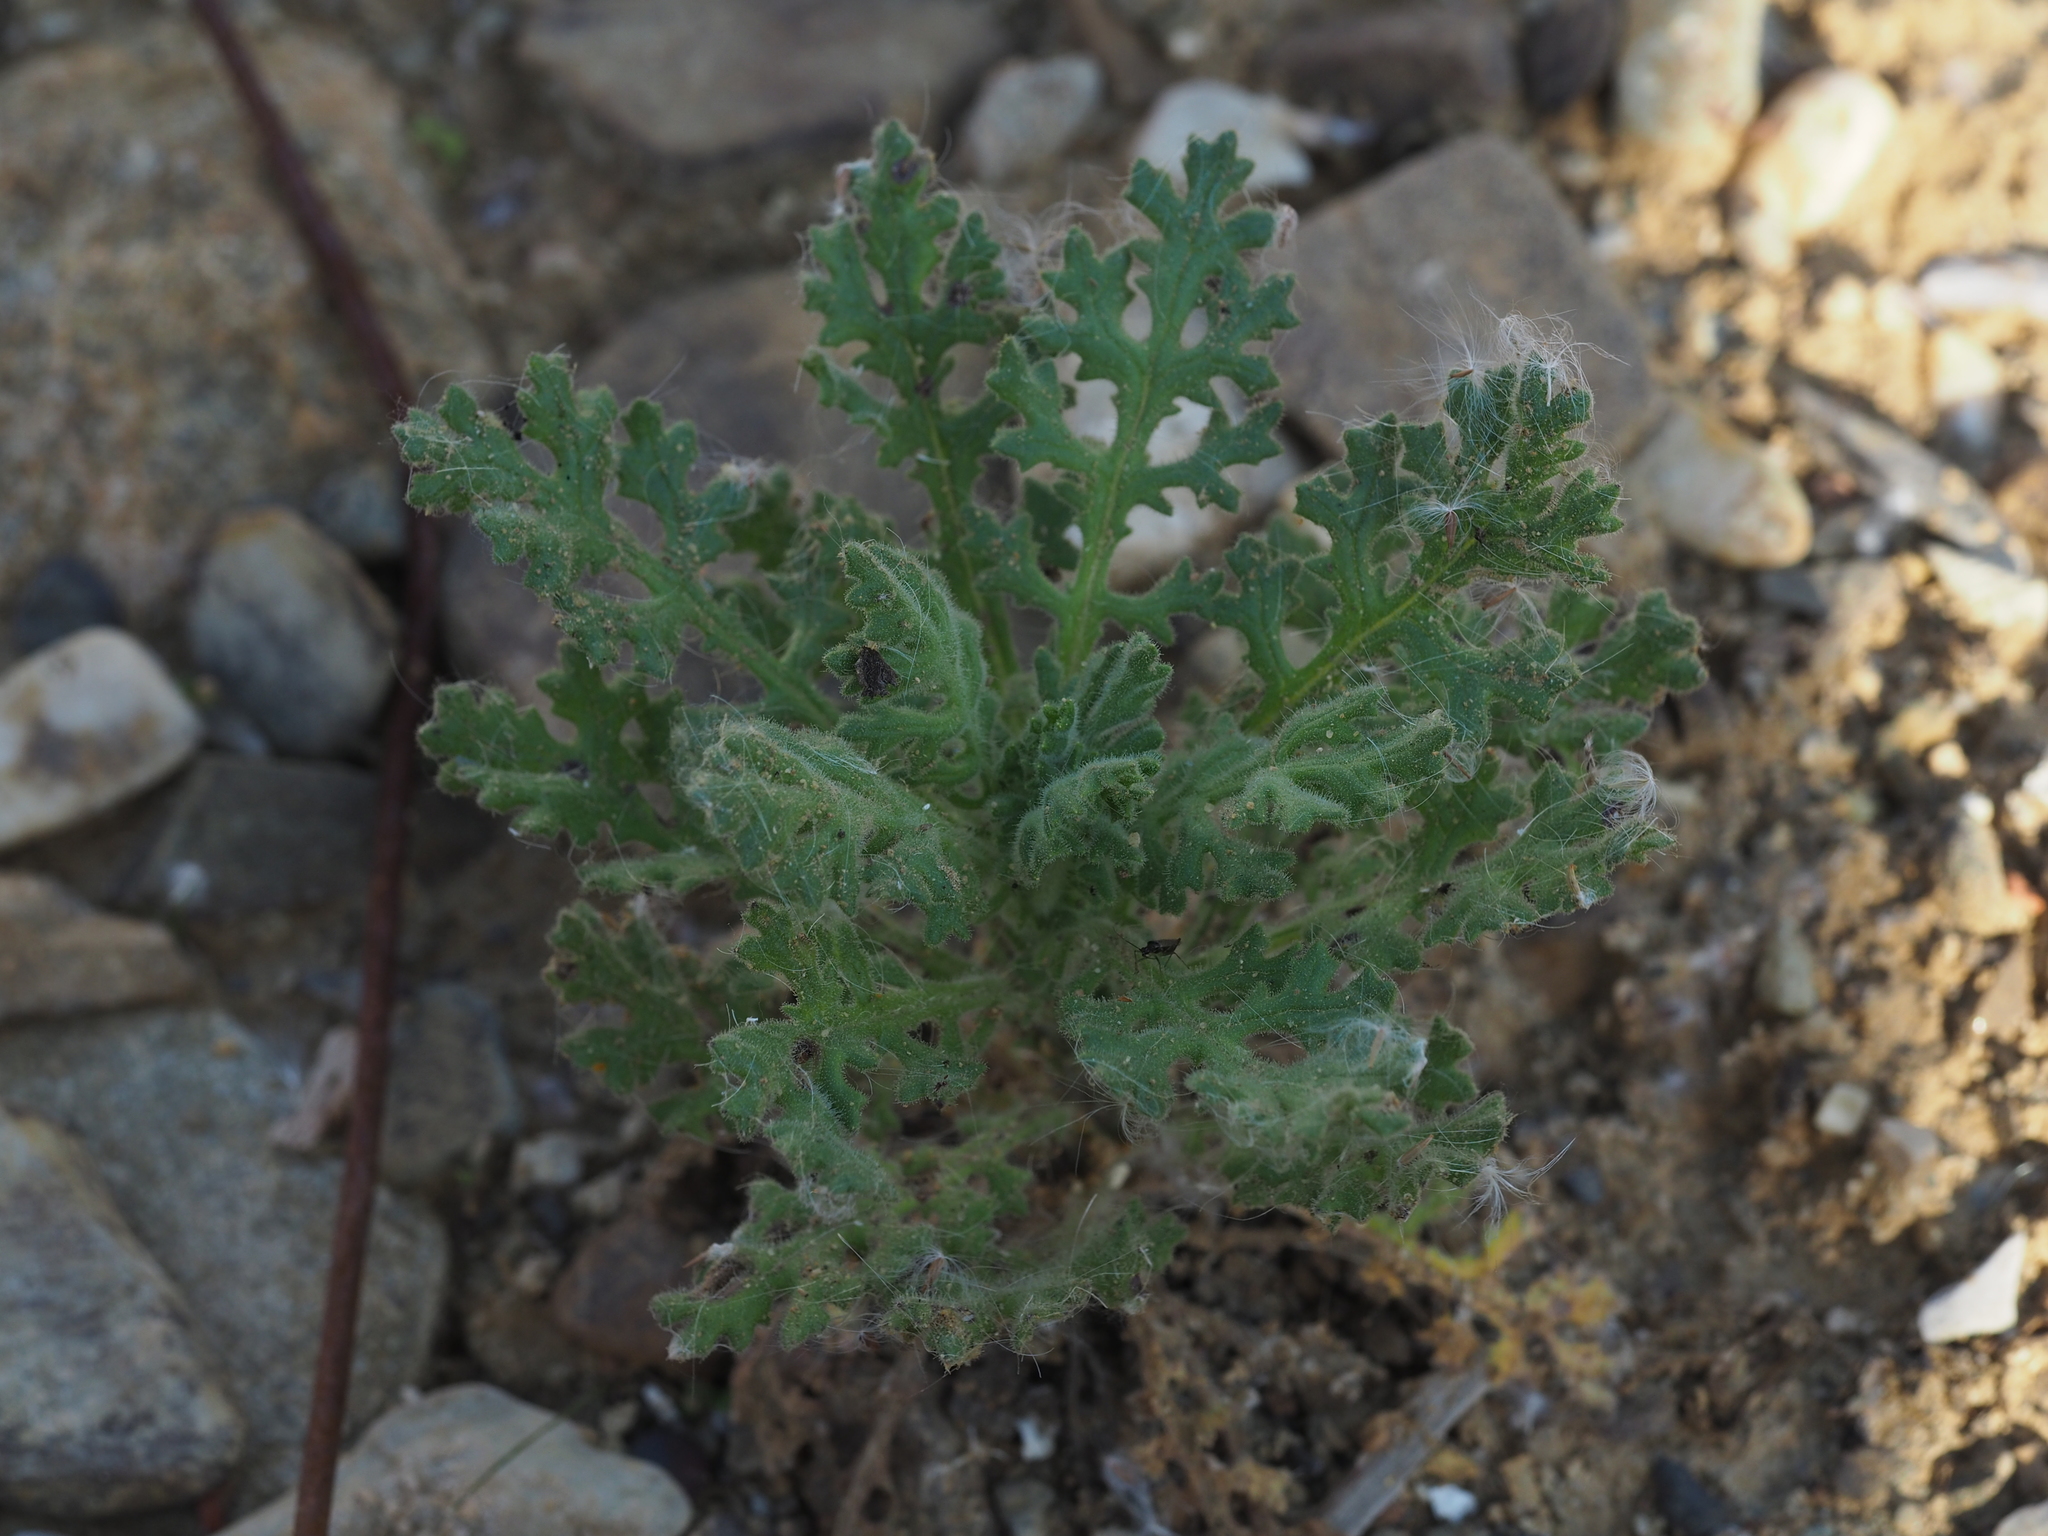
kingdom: Plantae
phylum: Tracheophyta
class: Magnoliopsida
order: Asterales
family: Asteraceae
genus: Senecio
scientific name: Senecio viscosus
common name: Sticky groundsel
